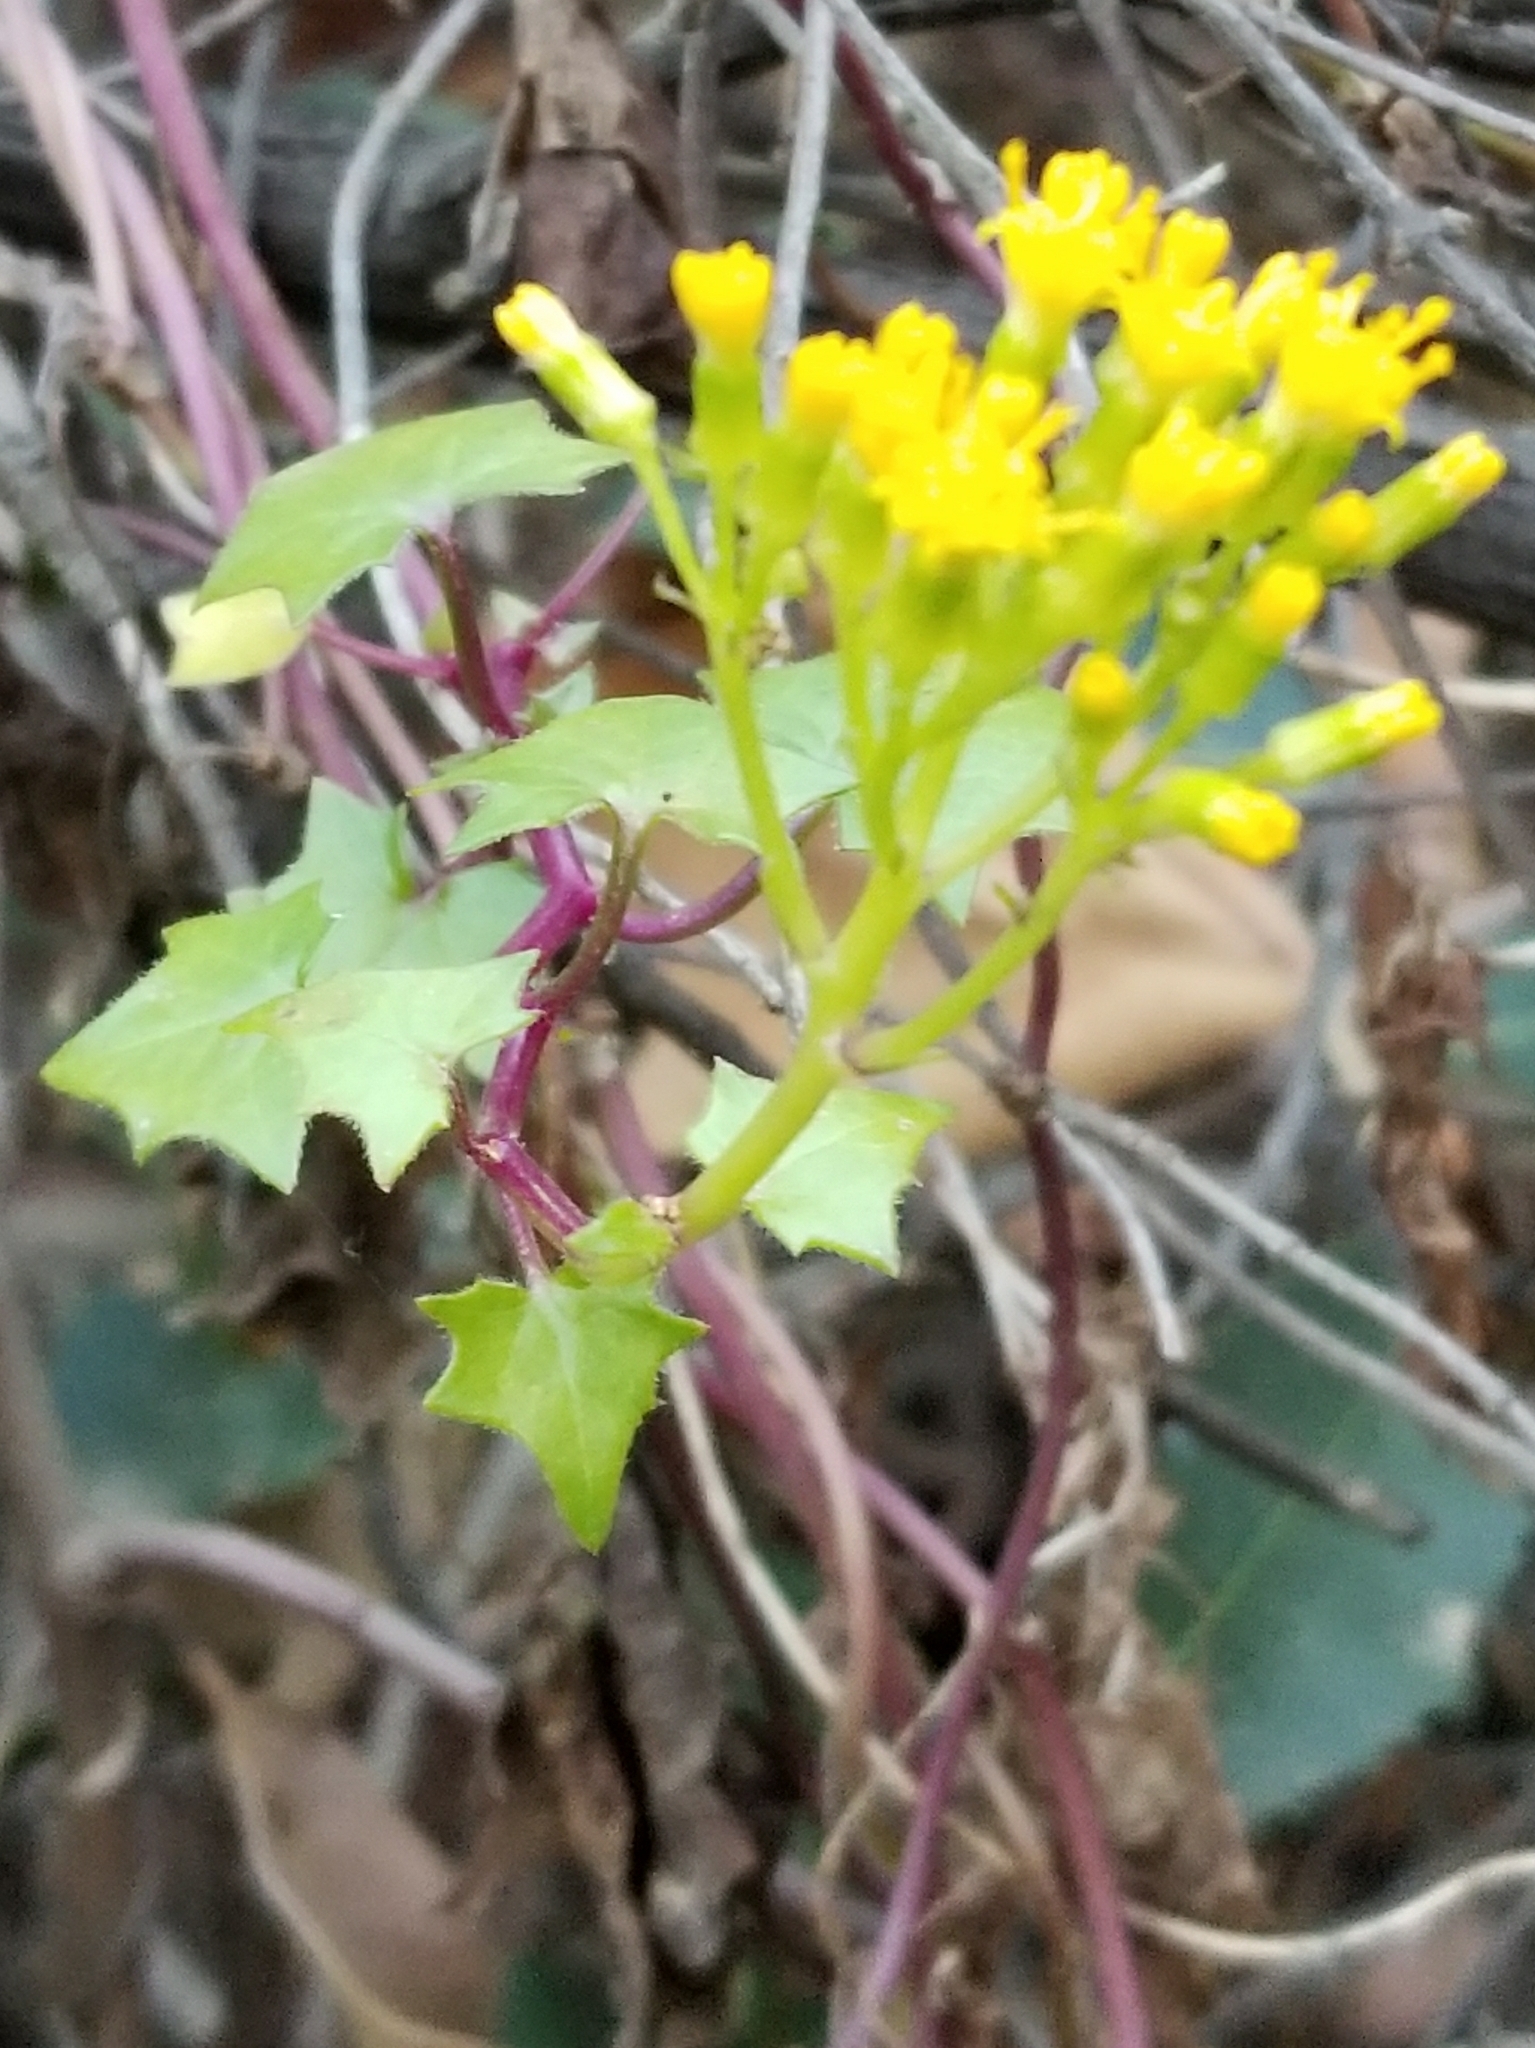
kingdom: Plantae
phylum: Tracheophyta
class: Magnoliopsida
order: Asterales
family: Asteraceae
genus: Delairea
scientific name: Delairea odorata
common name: Cape-ivy
